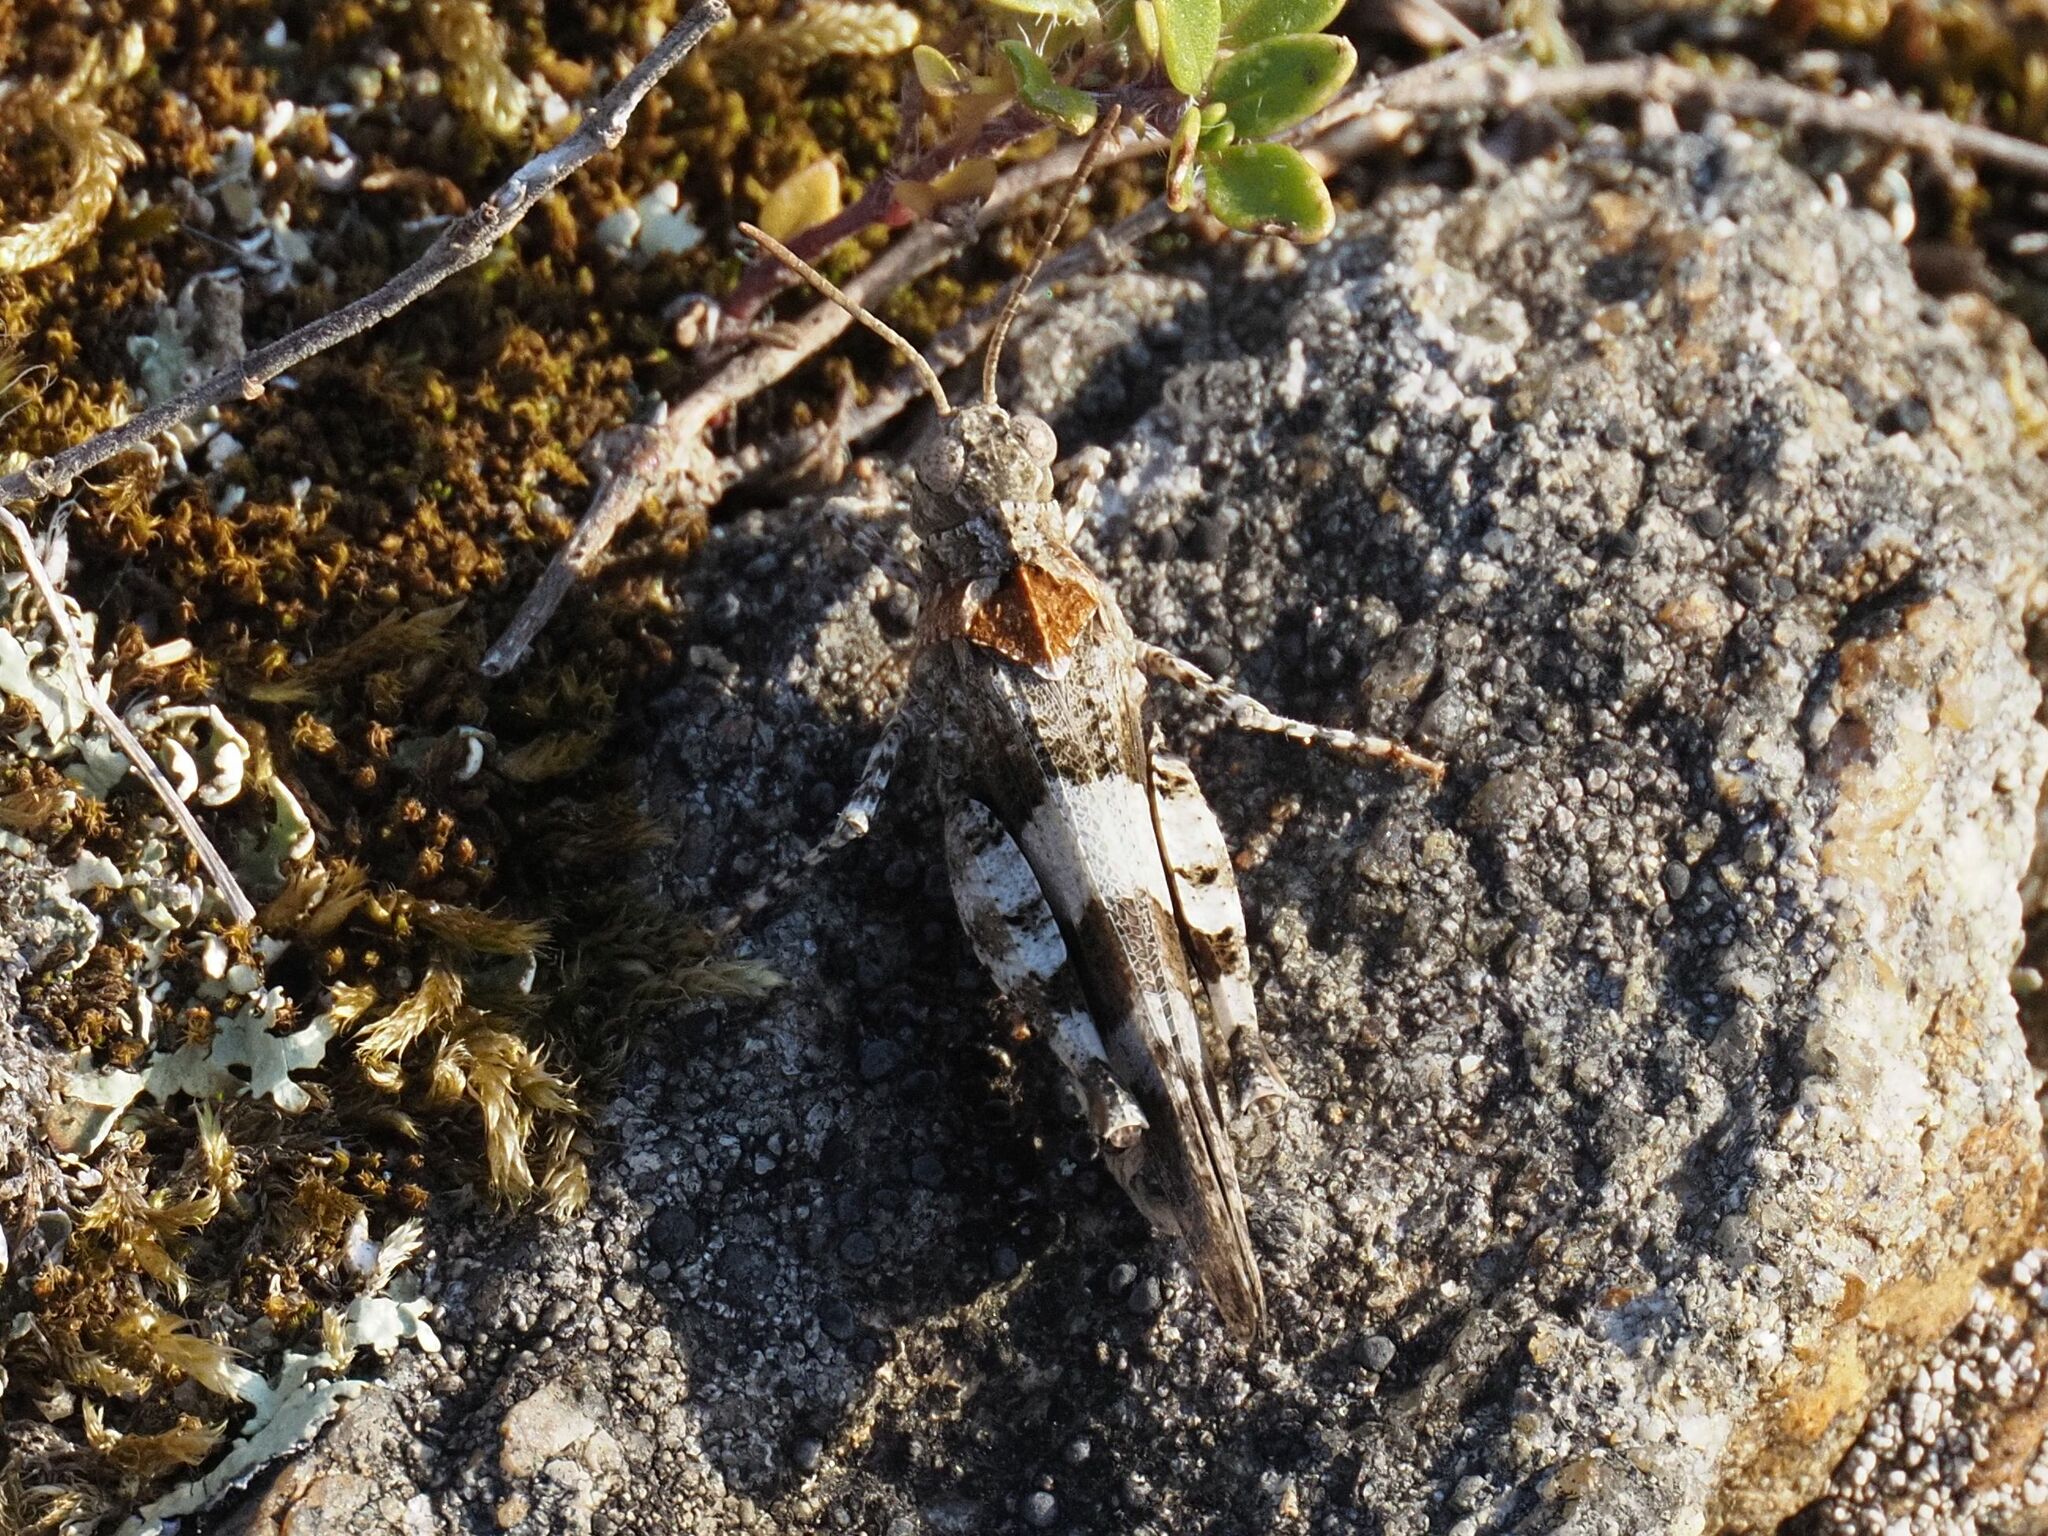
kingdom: Animalia
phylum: Arthropoda
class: Insecta
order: Orthoptera
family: Acrididae
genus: Oedipoda
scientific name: Oedipoda caerulescens
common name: Blue-winged grasshopper
